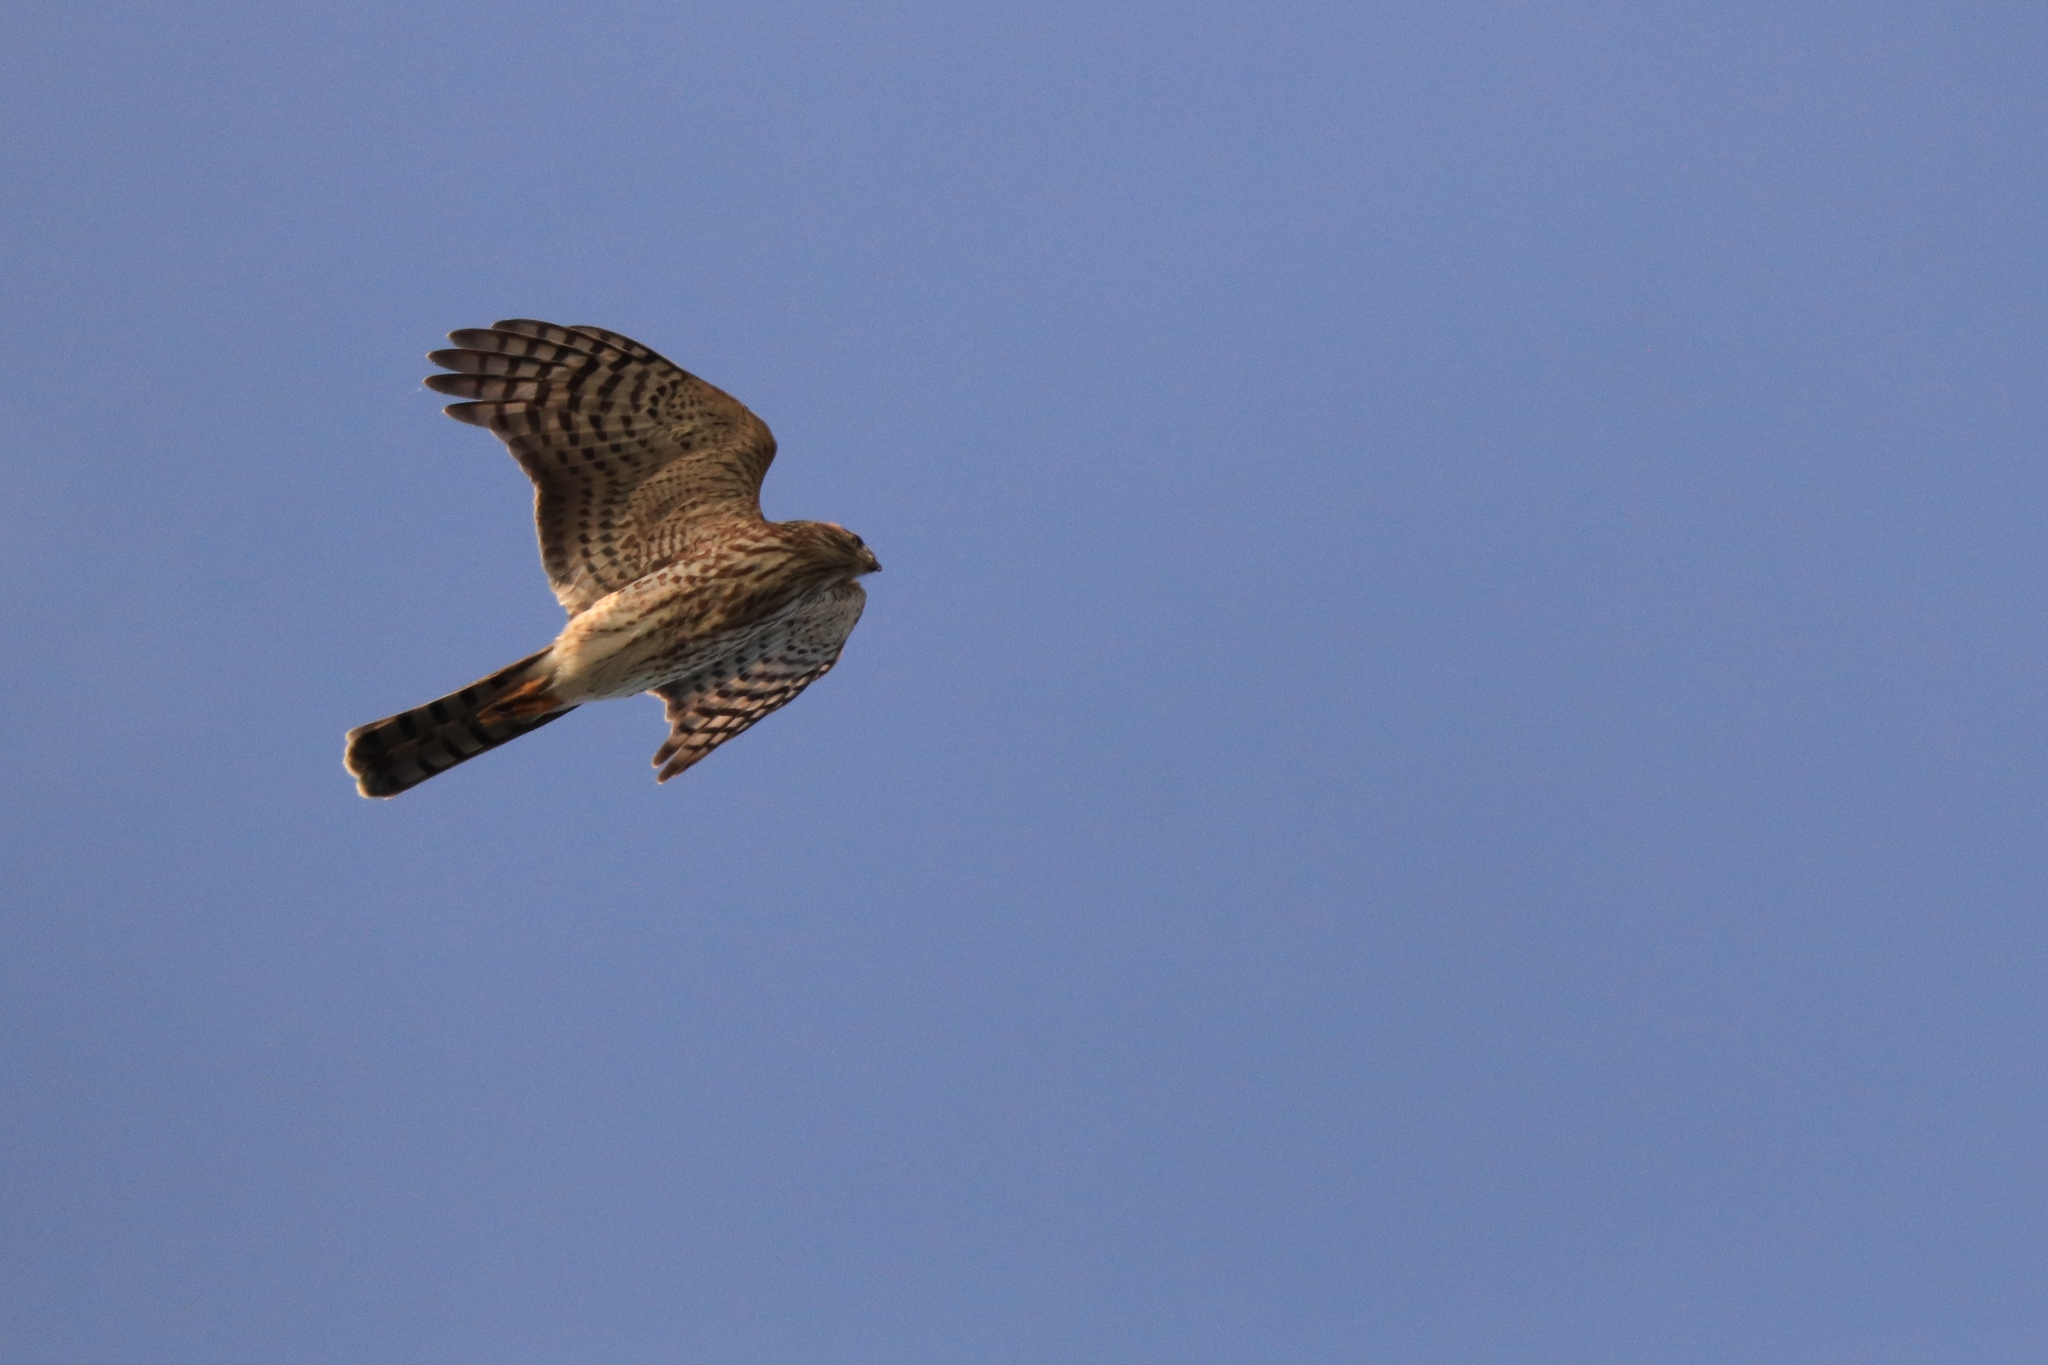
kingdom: Animalia
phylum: Chordata
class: Aves
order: Accipitriformes
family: Accipitridae
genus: Accipiter
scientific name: Accipiter striatus
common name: Sharp-shinned hawk
